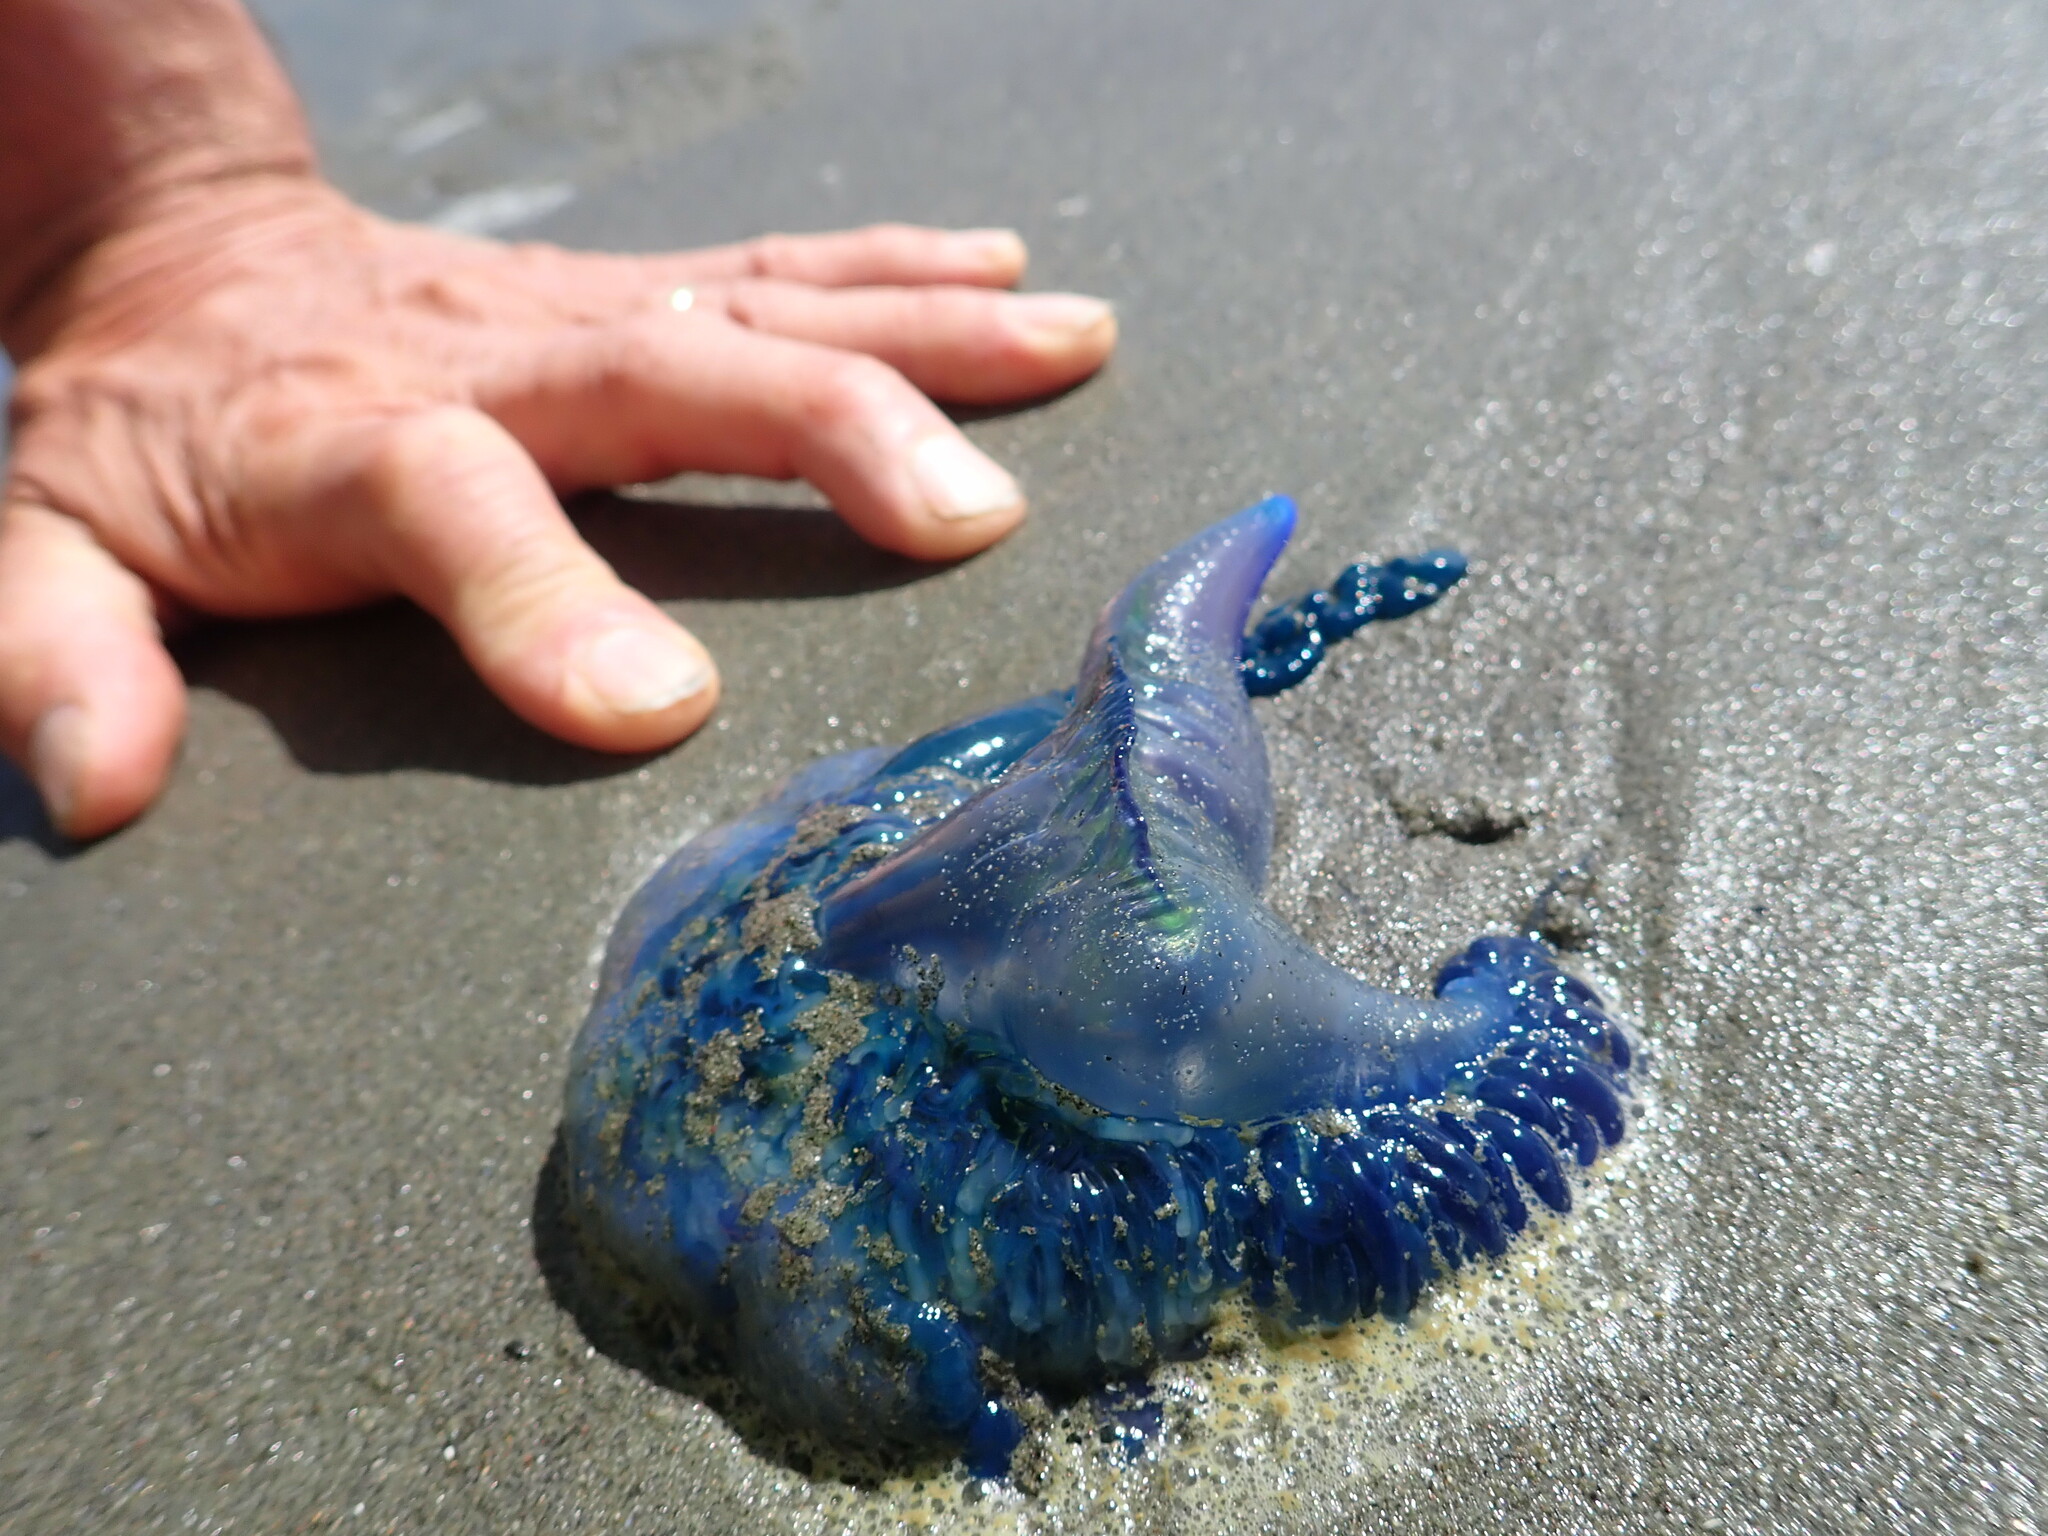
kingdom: Animalia
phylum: Cnidaria
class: Hydrozoa
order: Siphonophorae
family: Physaliidae
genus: Physalia
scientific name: Physalia physalis
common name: Portuguese man-of-war
